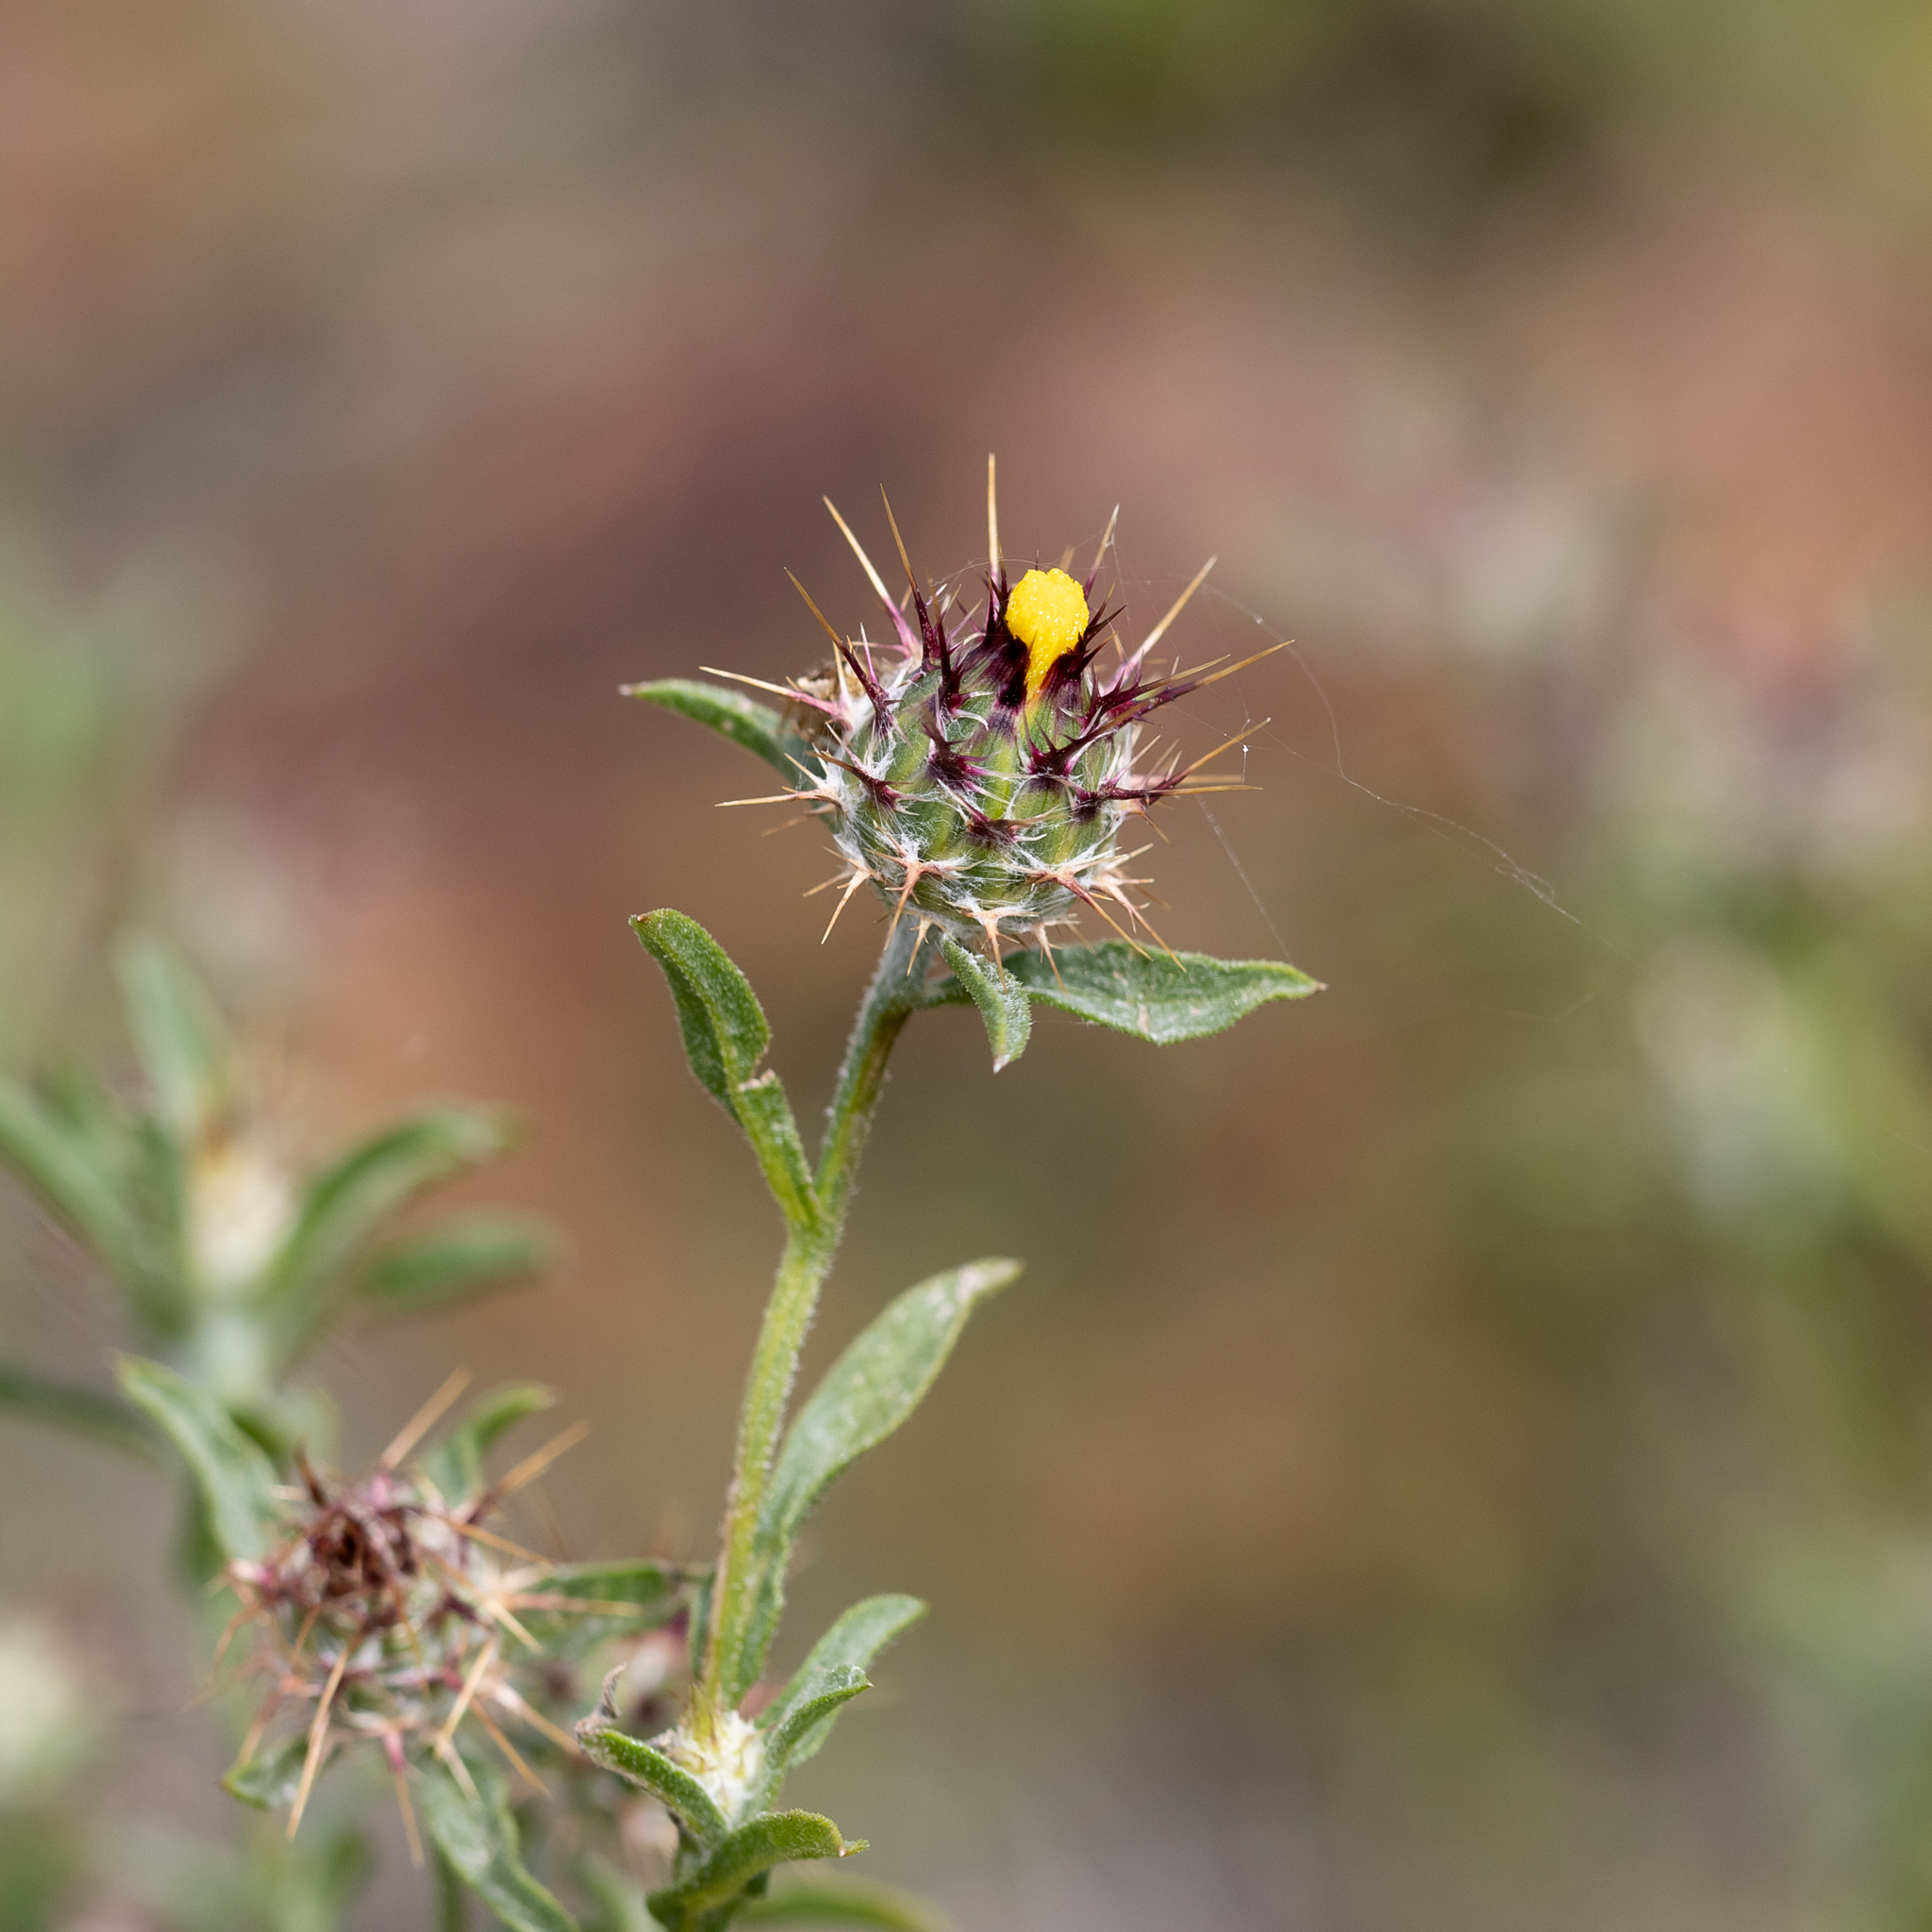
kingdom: Plantae
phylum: Tracheophyta
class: Magnoliopsida
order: Asterales
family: Asteraceae
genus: Centaurea
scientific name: Centaurea melitensis
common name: Maltese star-thistle
